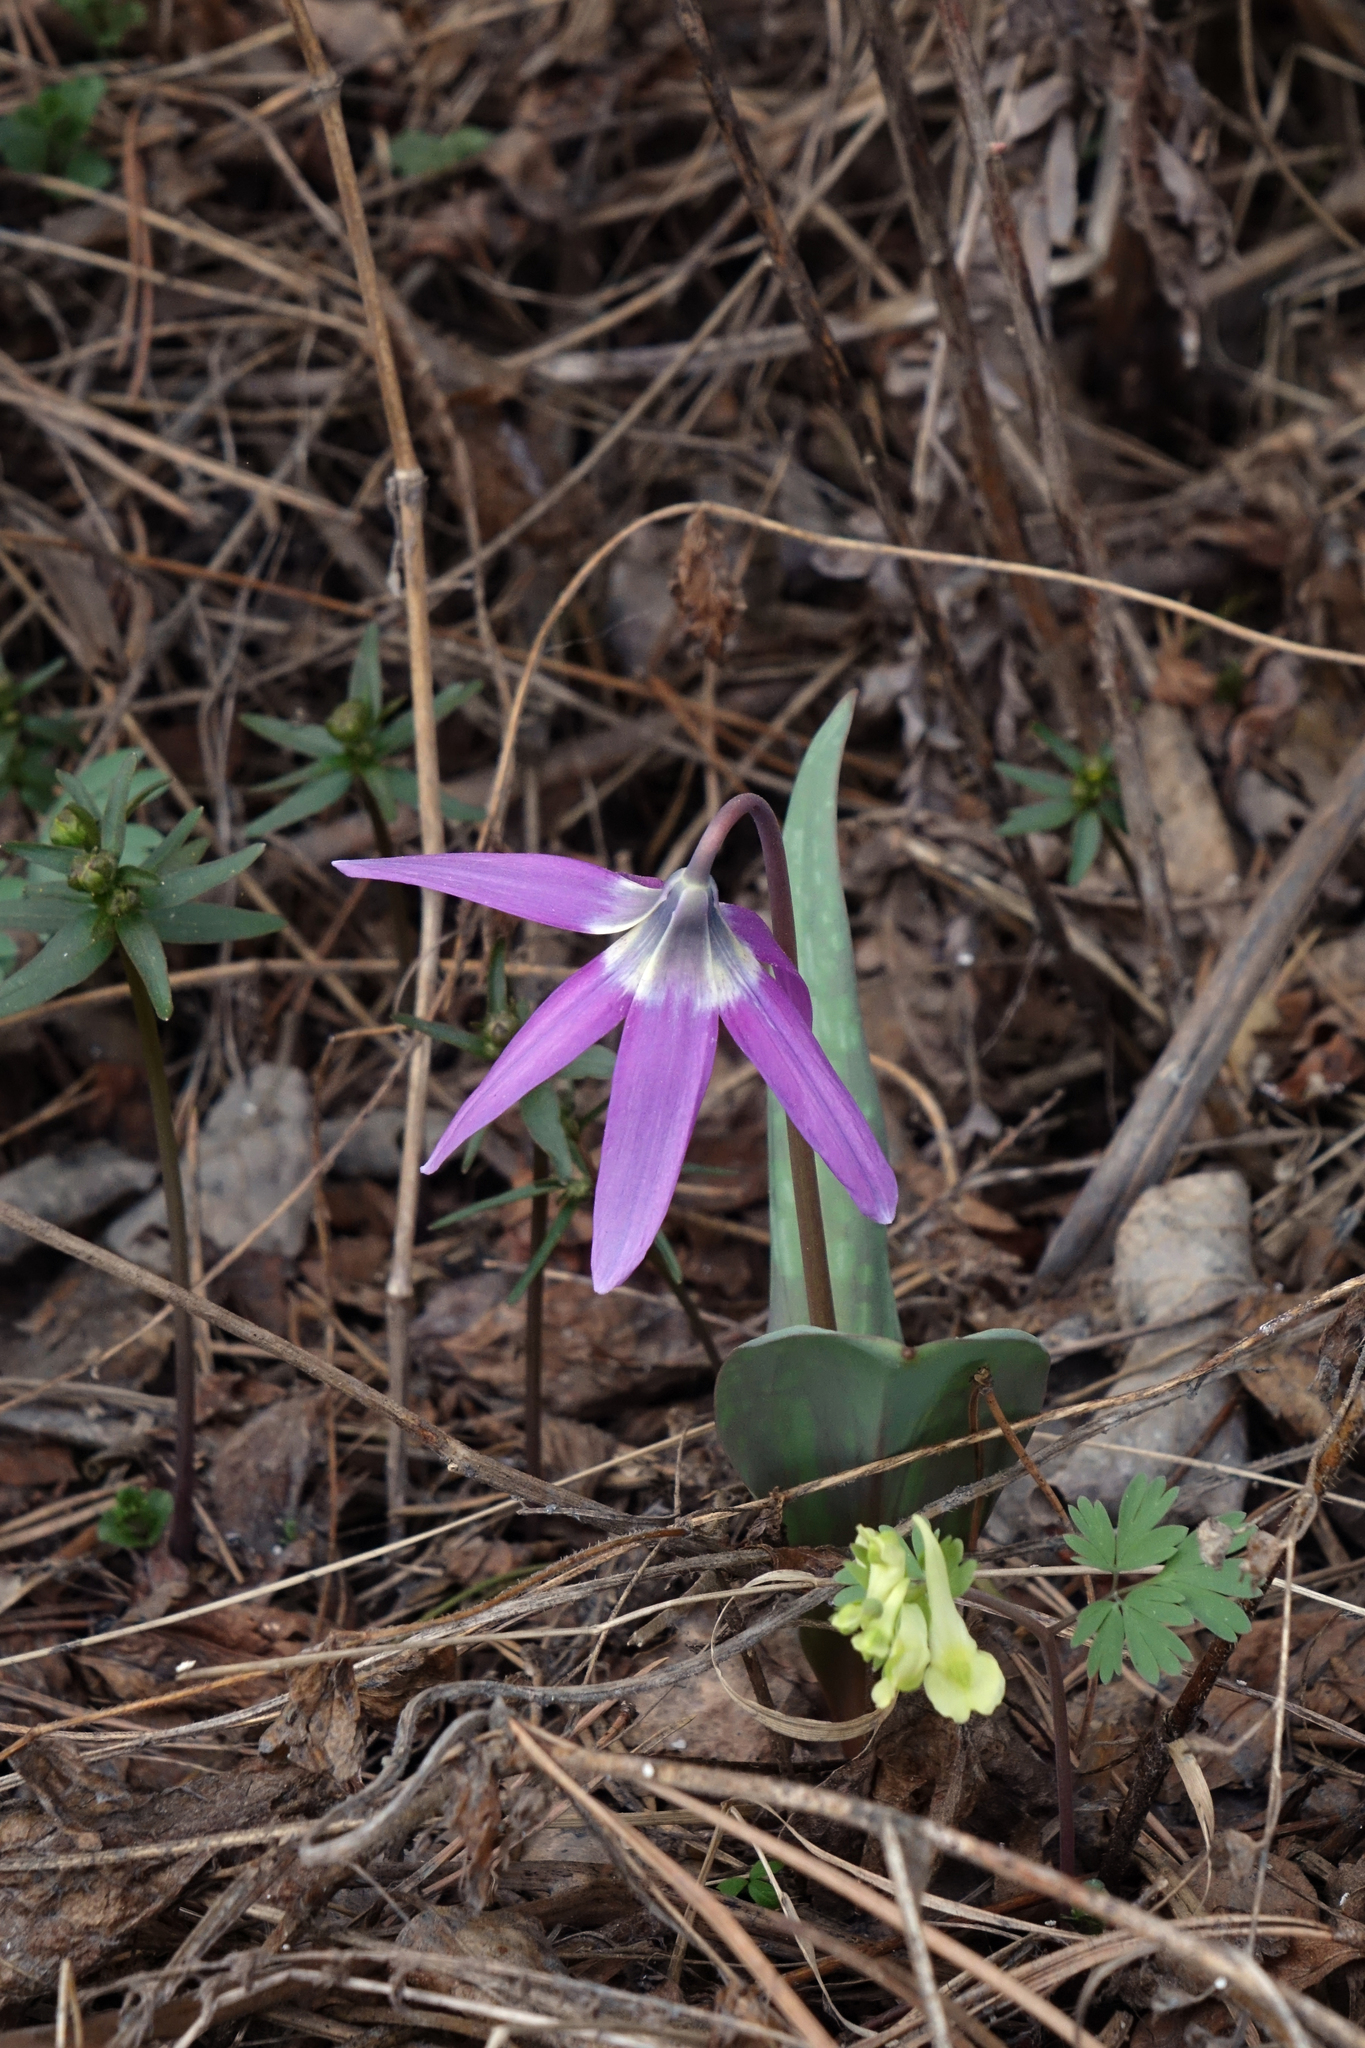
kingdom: Plantae
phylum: Tracheophyta
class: Liliopsida
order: Liliales
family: Liliaceae
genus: Erythronium
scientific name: Erythronium sibiricum
